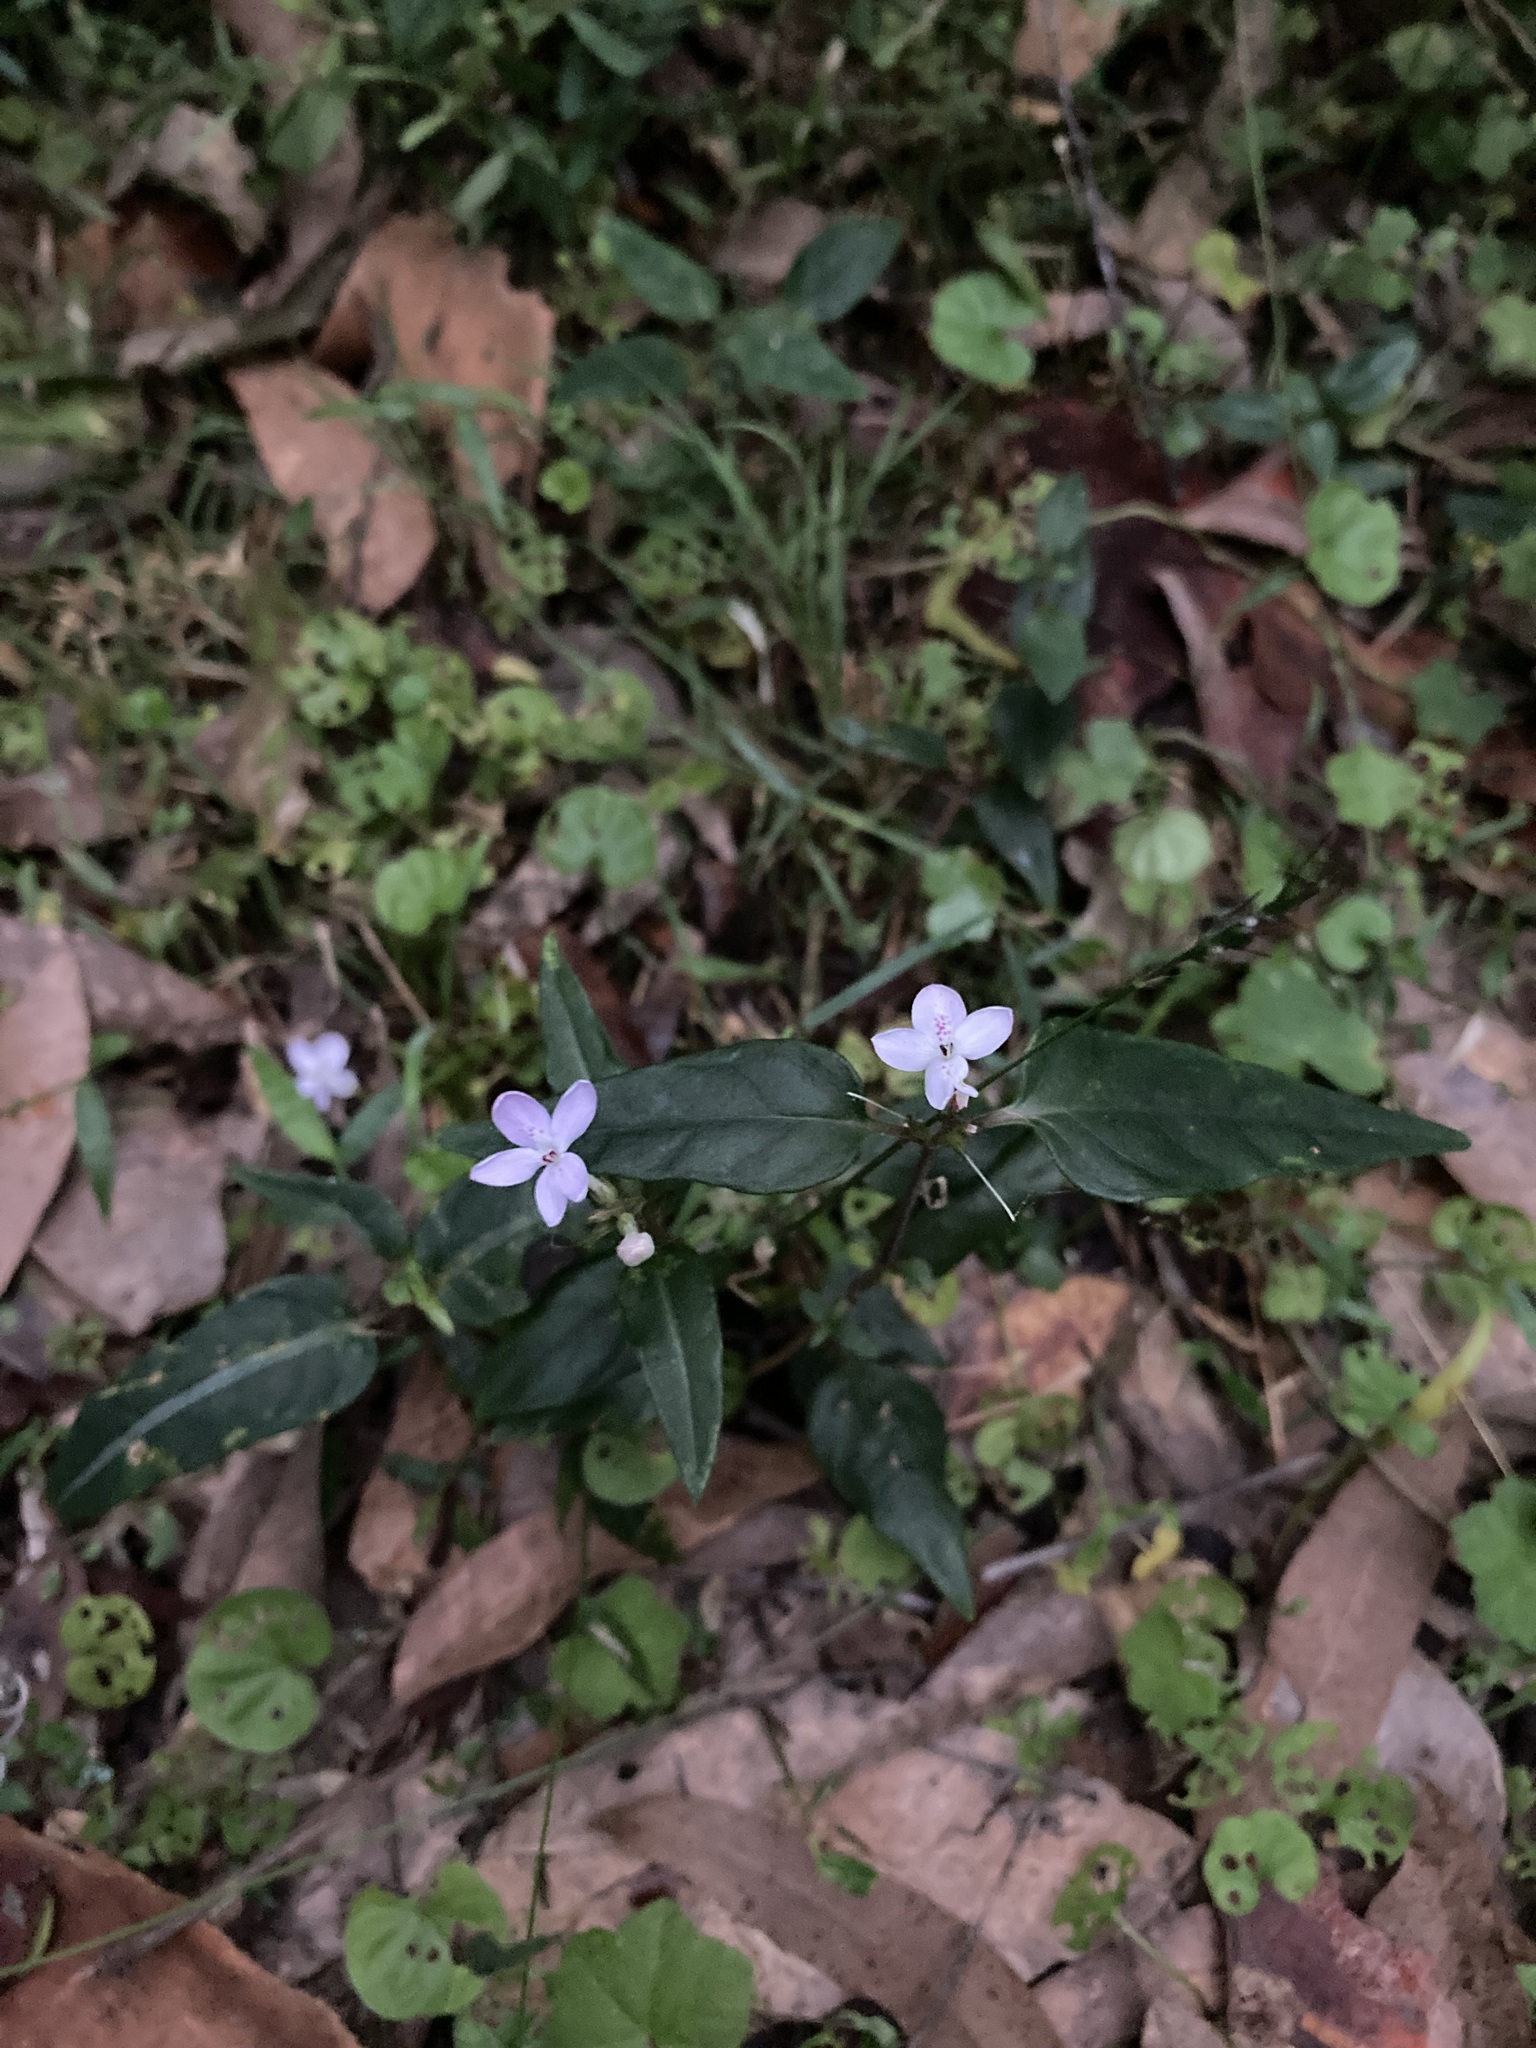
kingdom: Plantae
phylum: Tracheophyta
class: Magnoliopsida
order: Lamiales
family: Acanthaceae
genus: Pseuderanthemum
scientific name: Pseuderanthemum variabile
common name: Night and afternoon
